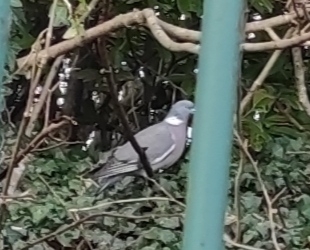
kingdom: Animalia
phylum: Chordata
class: Aves
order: Columbiformes
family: Columbidae
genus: Columba
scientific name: Columba palumbus
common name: Common wood pigeon
